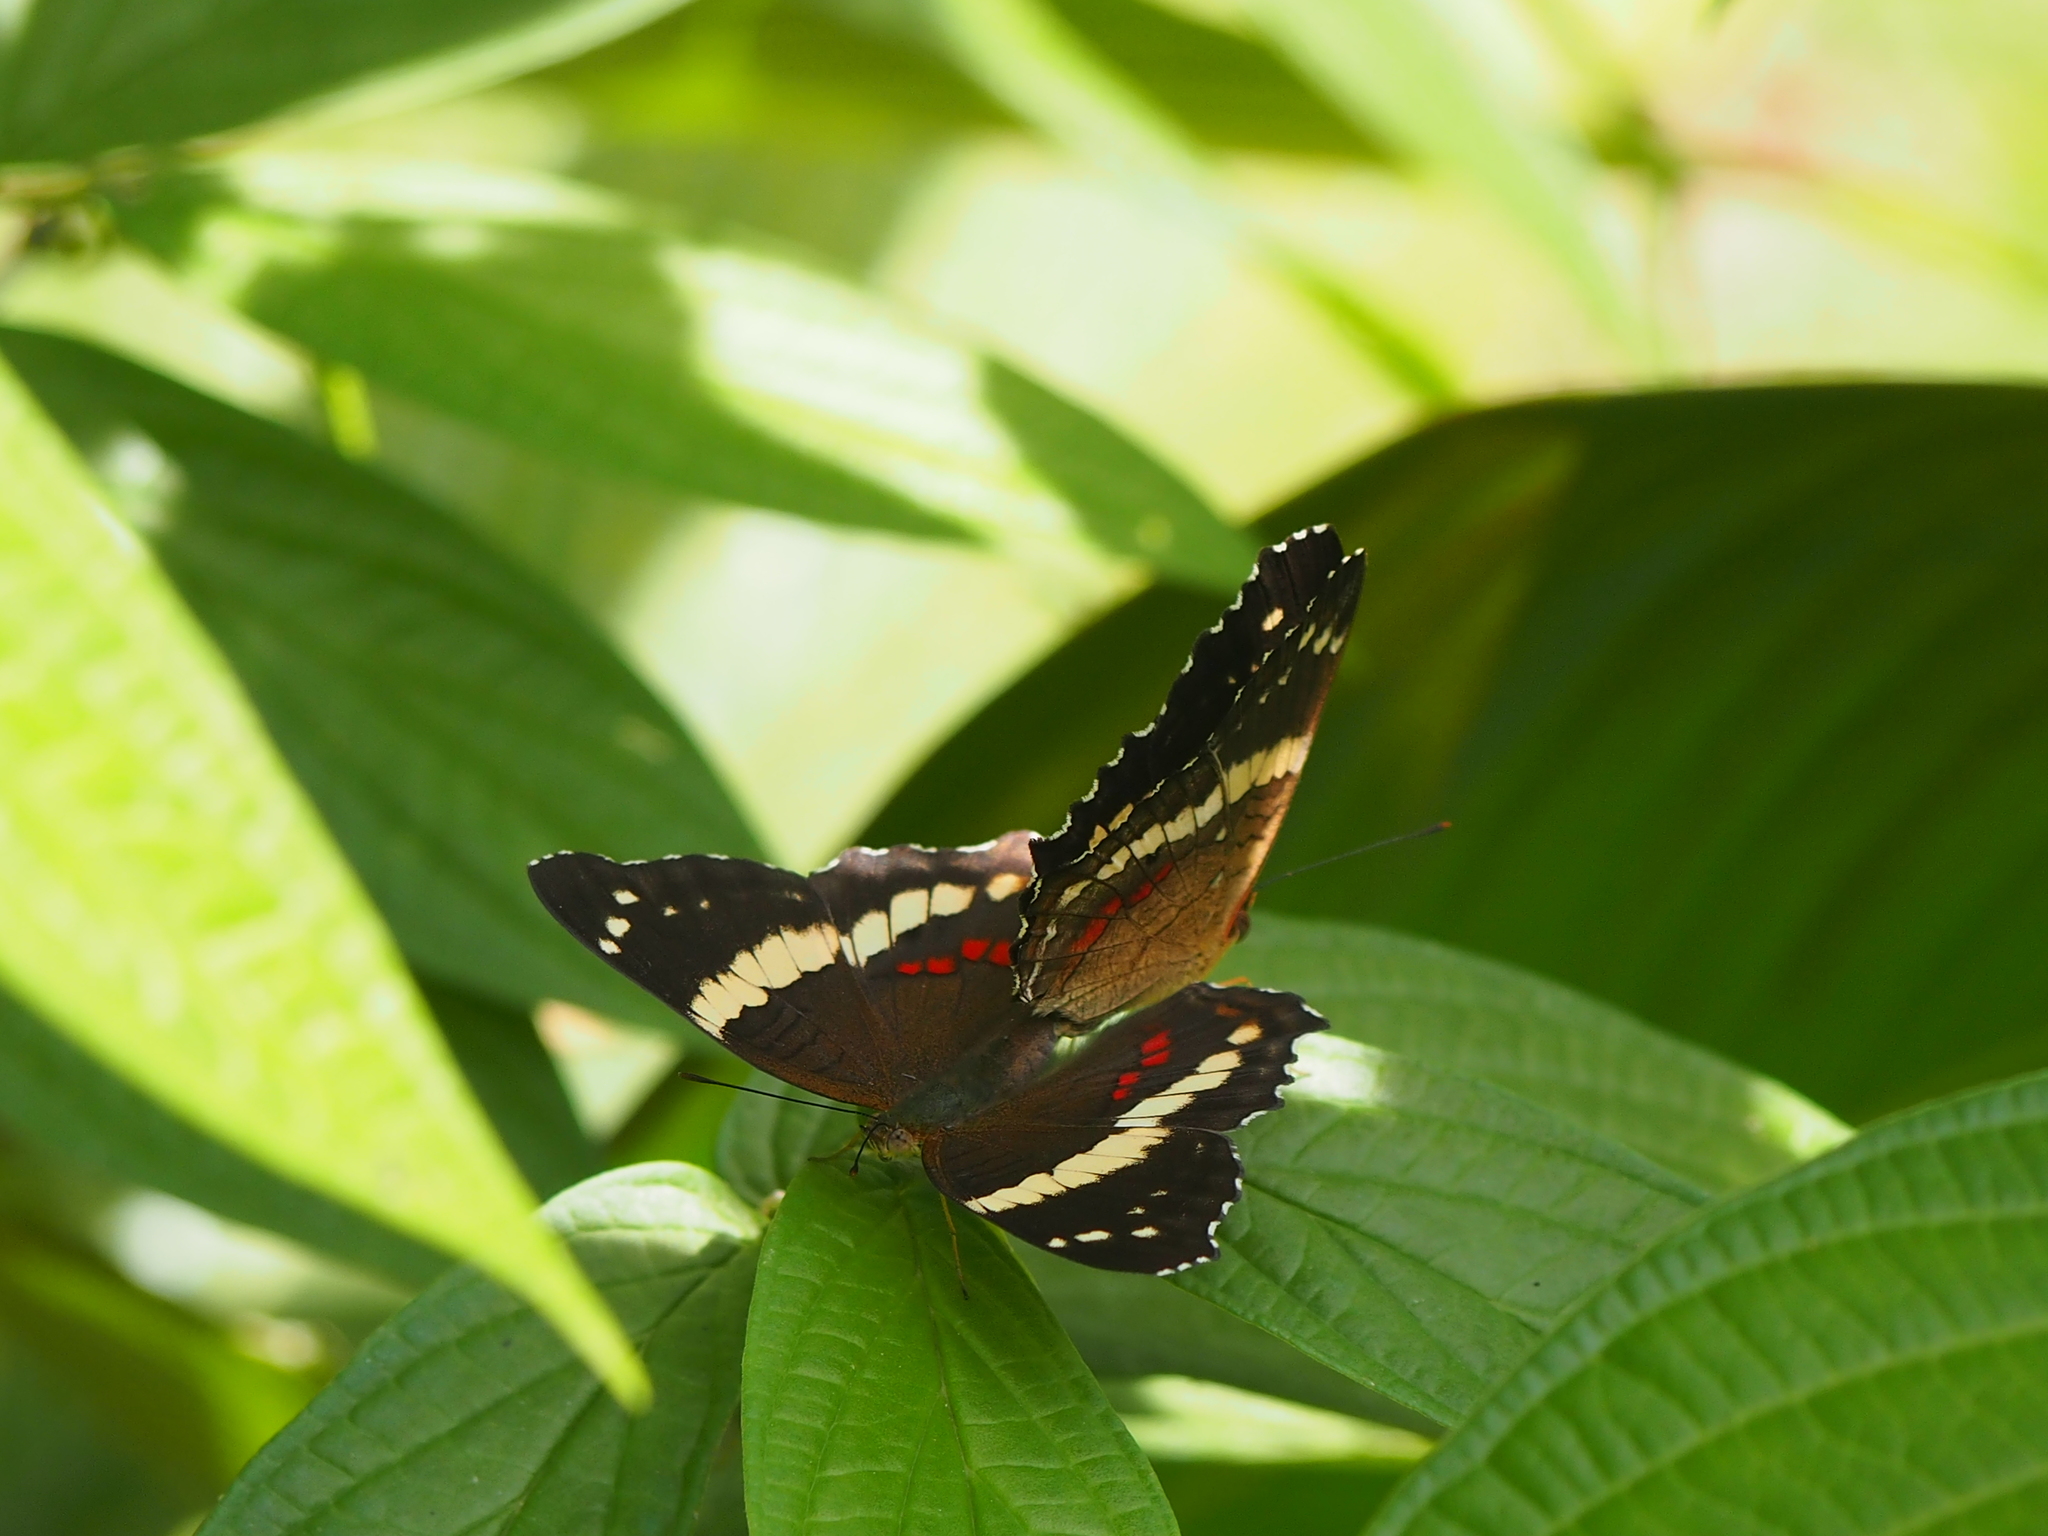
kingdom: Animalia
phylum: Arthropoda
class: Insecta
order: Lepidoptera
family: Nymphalidae
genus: Anartia
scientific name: Anartia fatima
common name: Banded peacock
